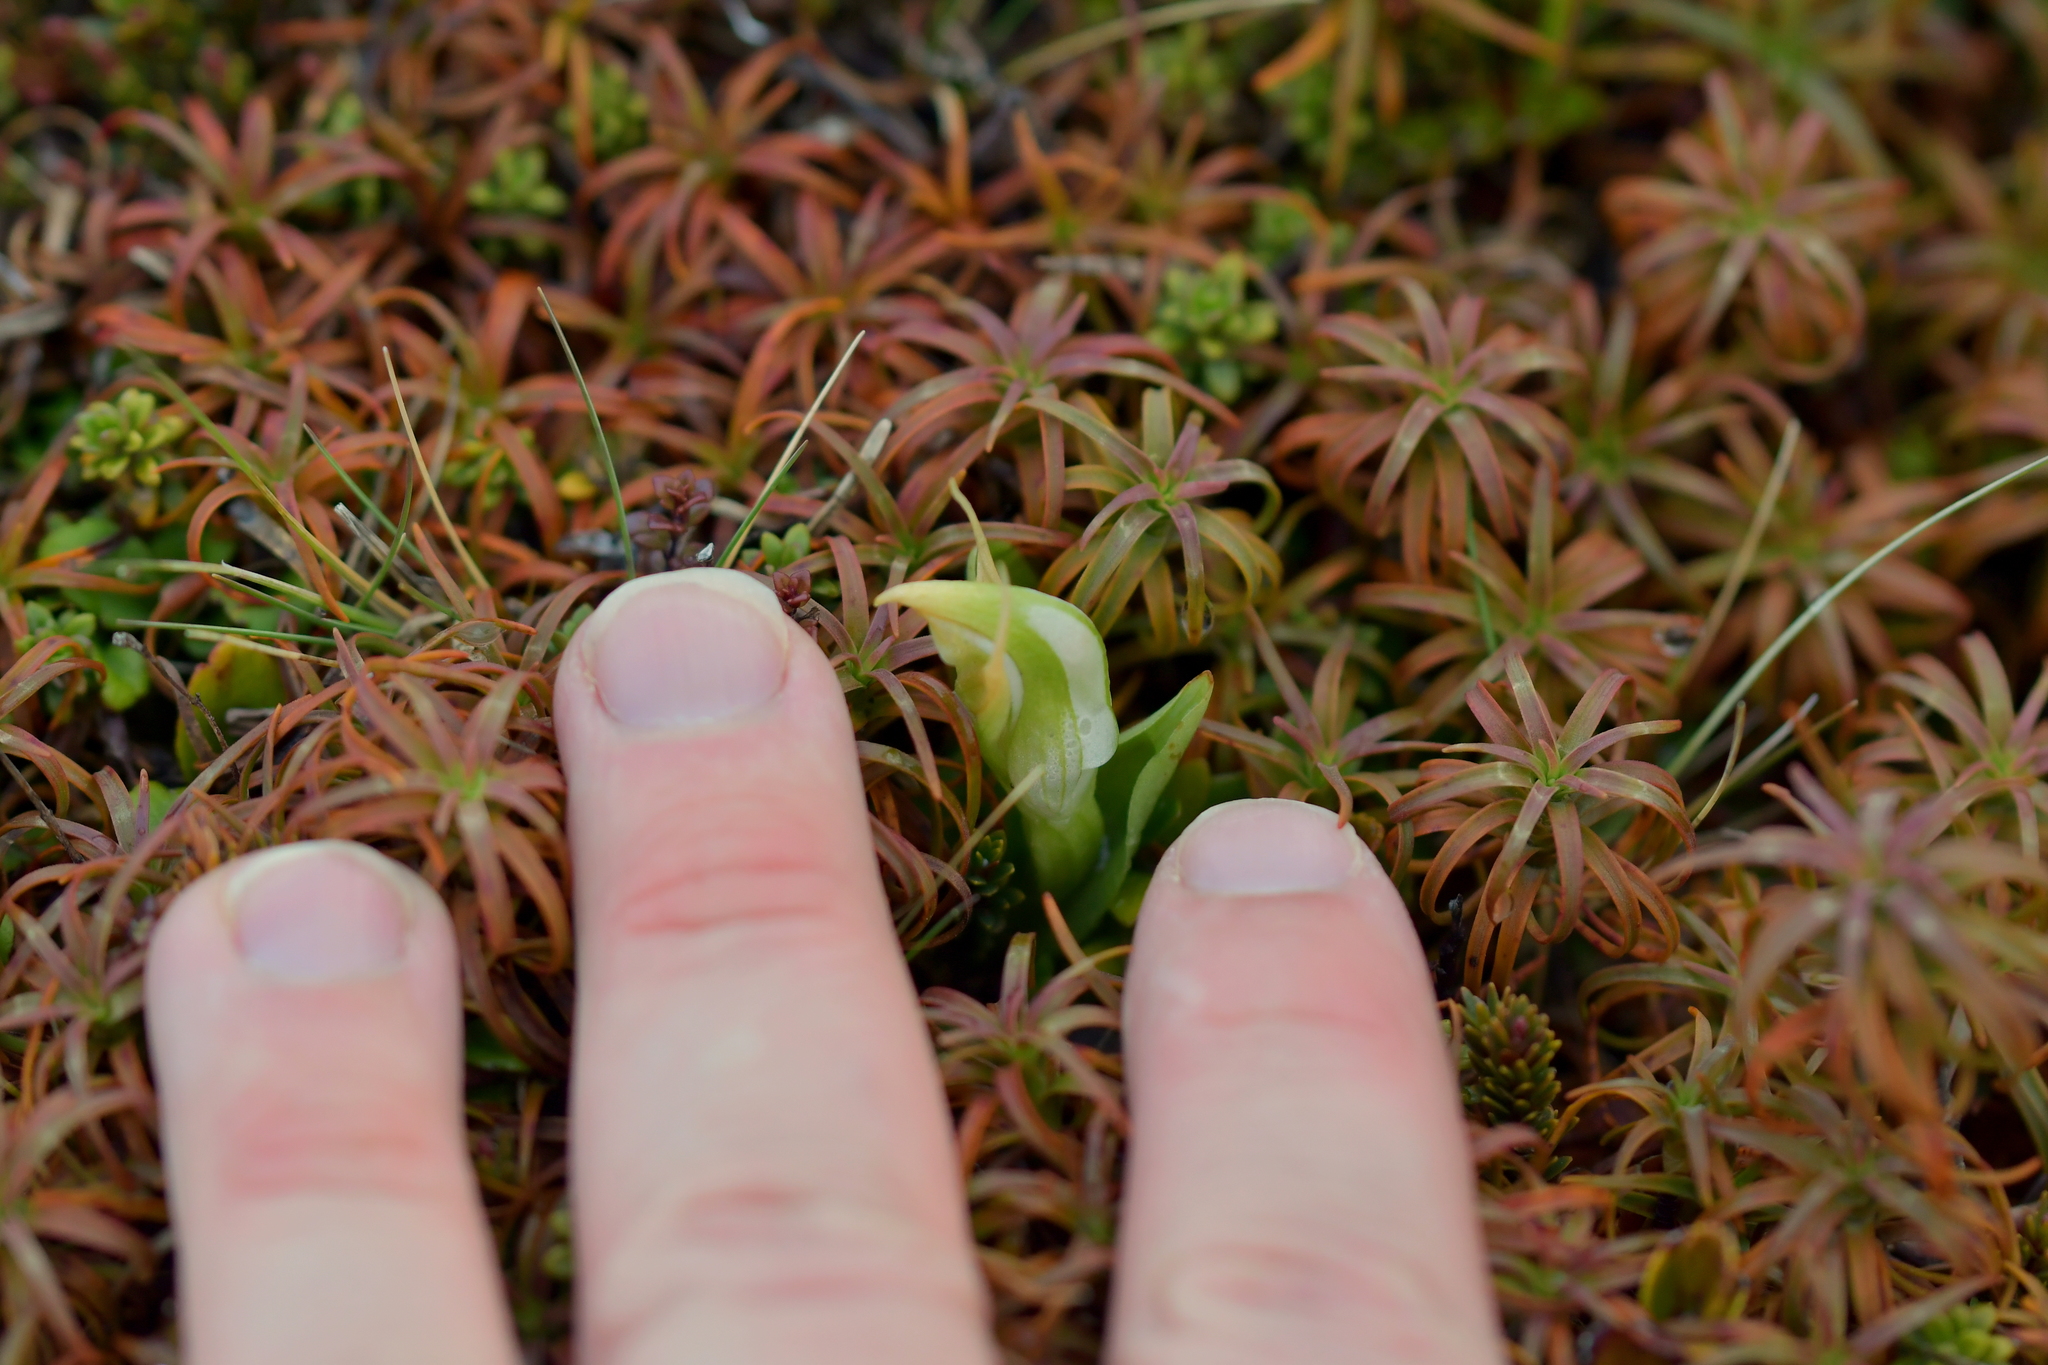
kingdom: Plantae
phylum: Tracheophyta
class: Liliopsida
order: Asparagales
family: Orchidaceae
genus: Pterostylis
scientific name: Pterostylis humilis
